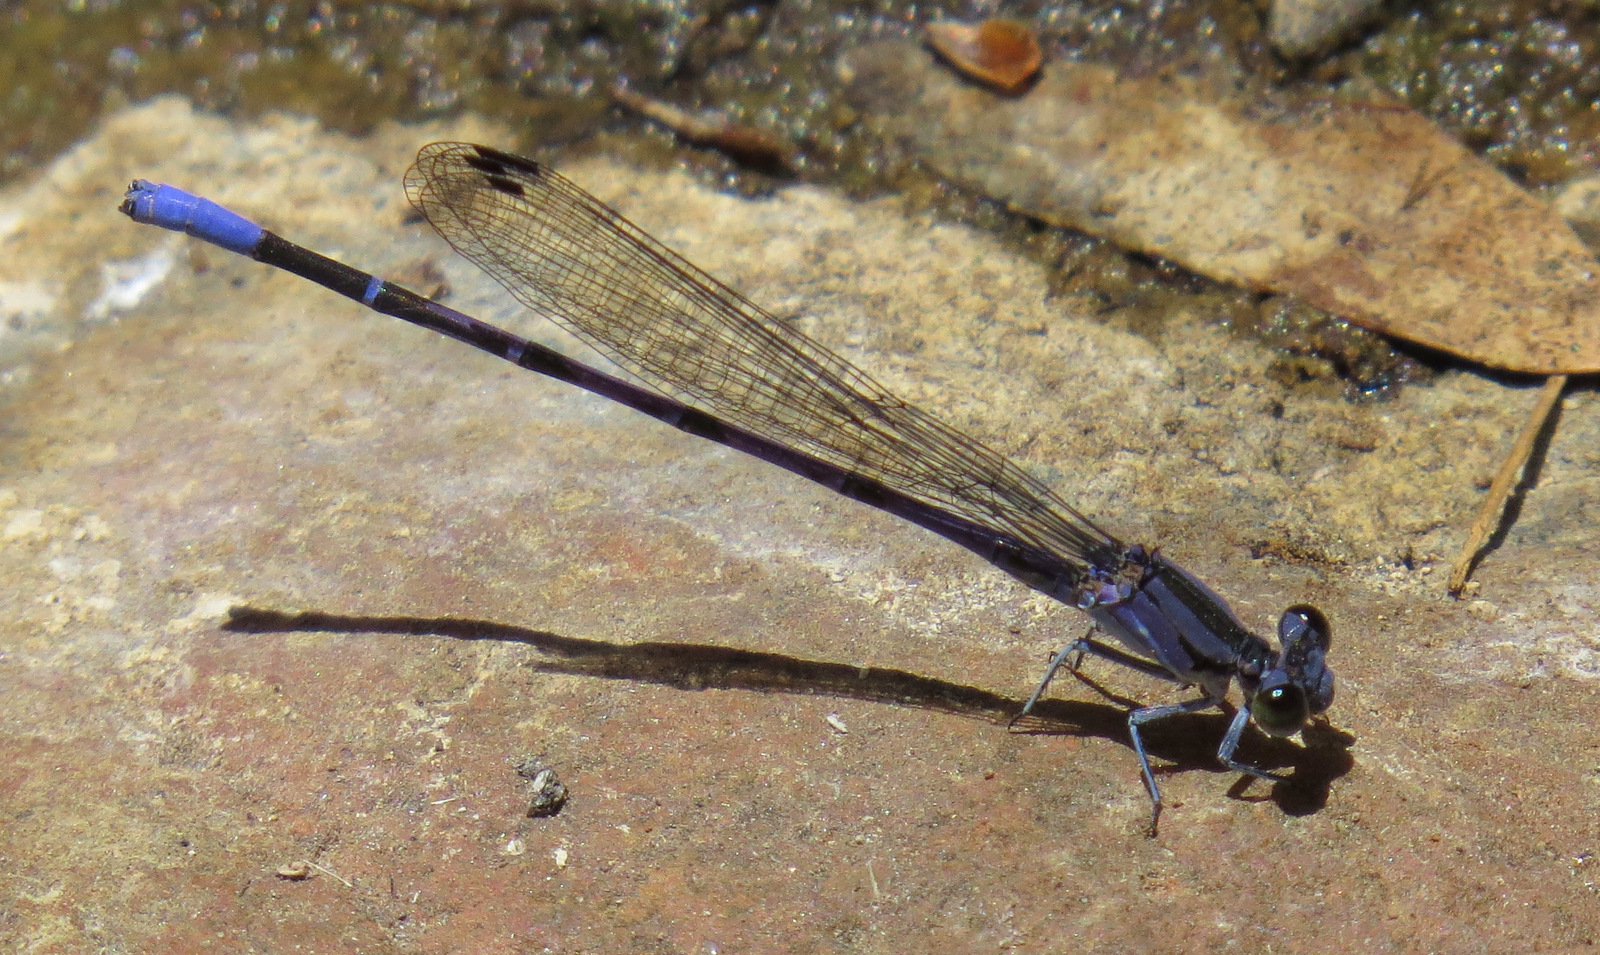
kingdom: Animalia
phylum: Arthropoda
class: Insecta
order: Odonata
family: Coenagrionidae
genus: Argia
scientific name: Argia funebris
